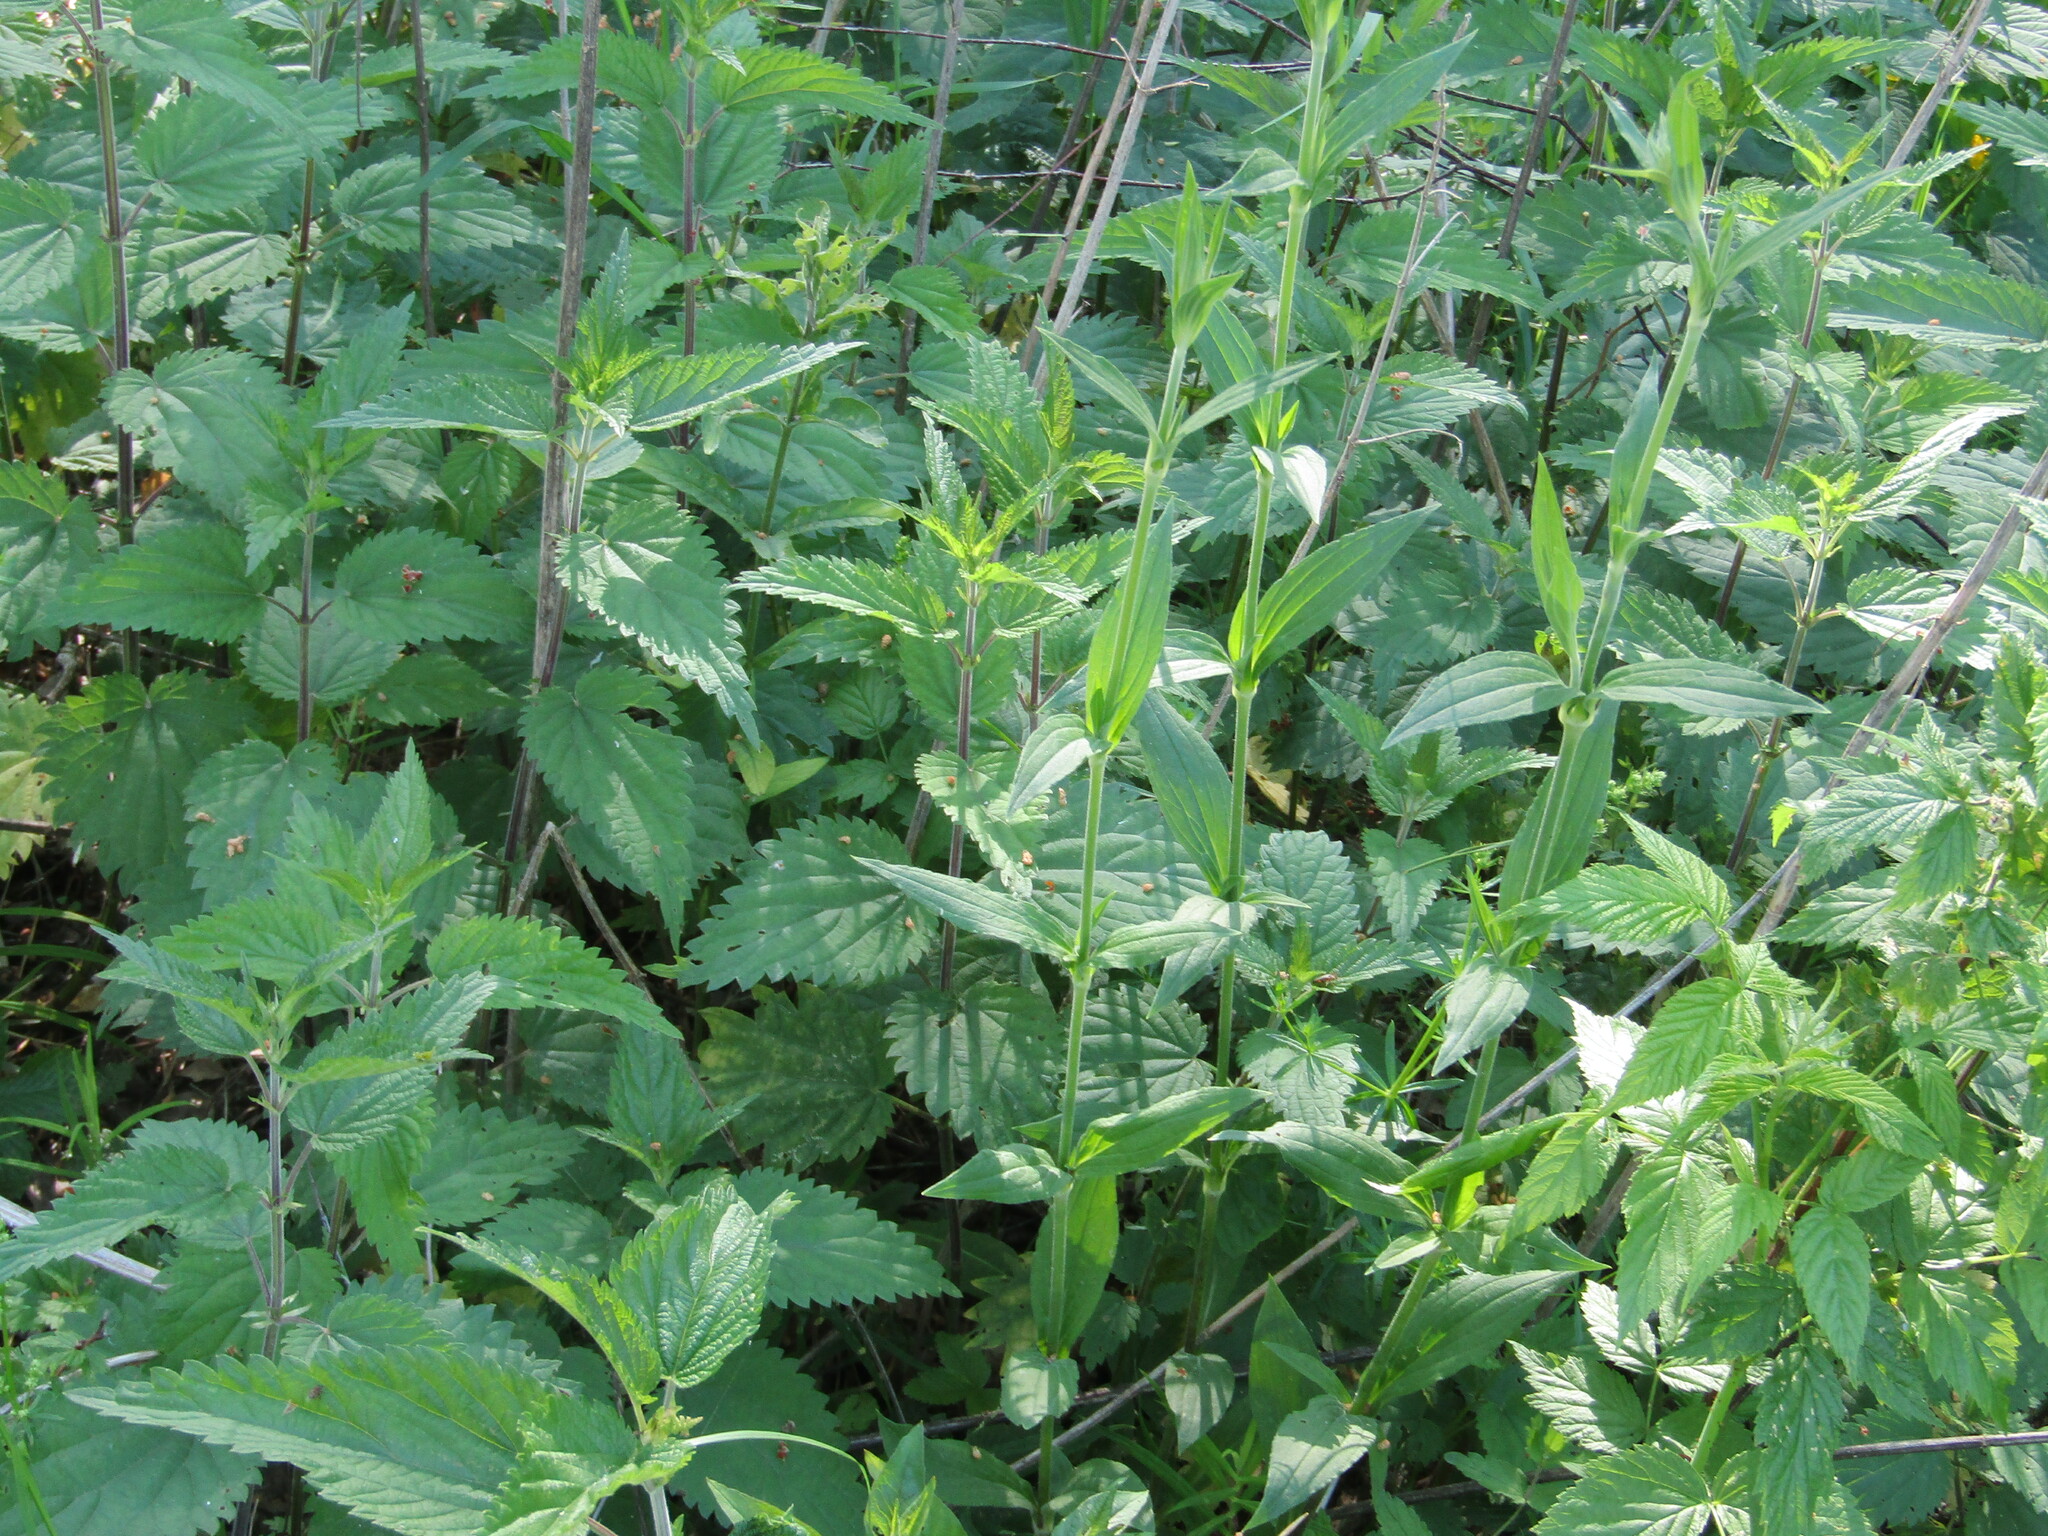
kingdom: Plantae
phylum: Tracheophyta
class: Magnoliopsida
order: Rosales
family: Urticaceae
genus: Urtica
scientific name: Urtica dioica
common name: Common nettle
